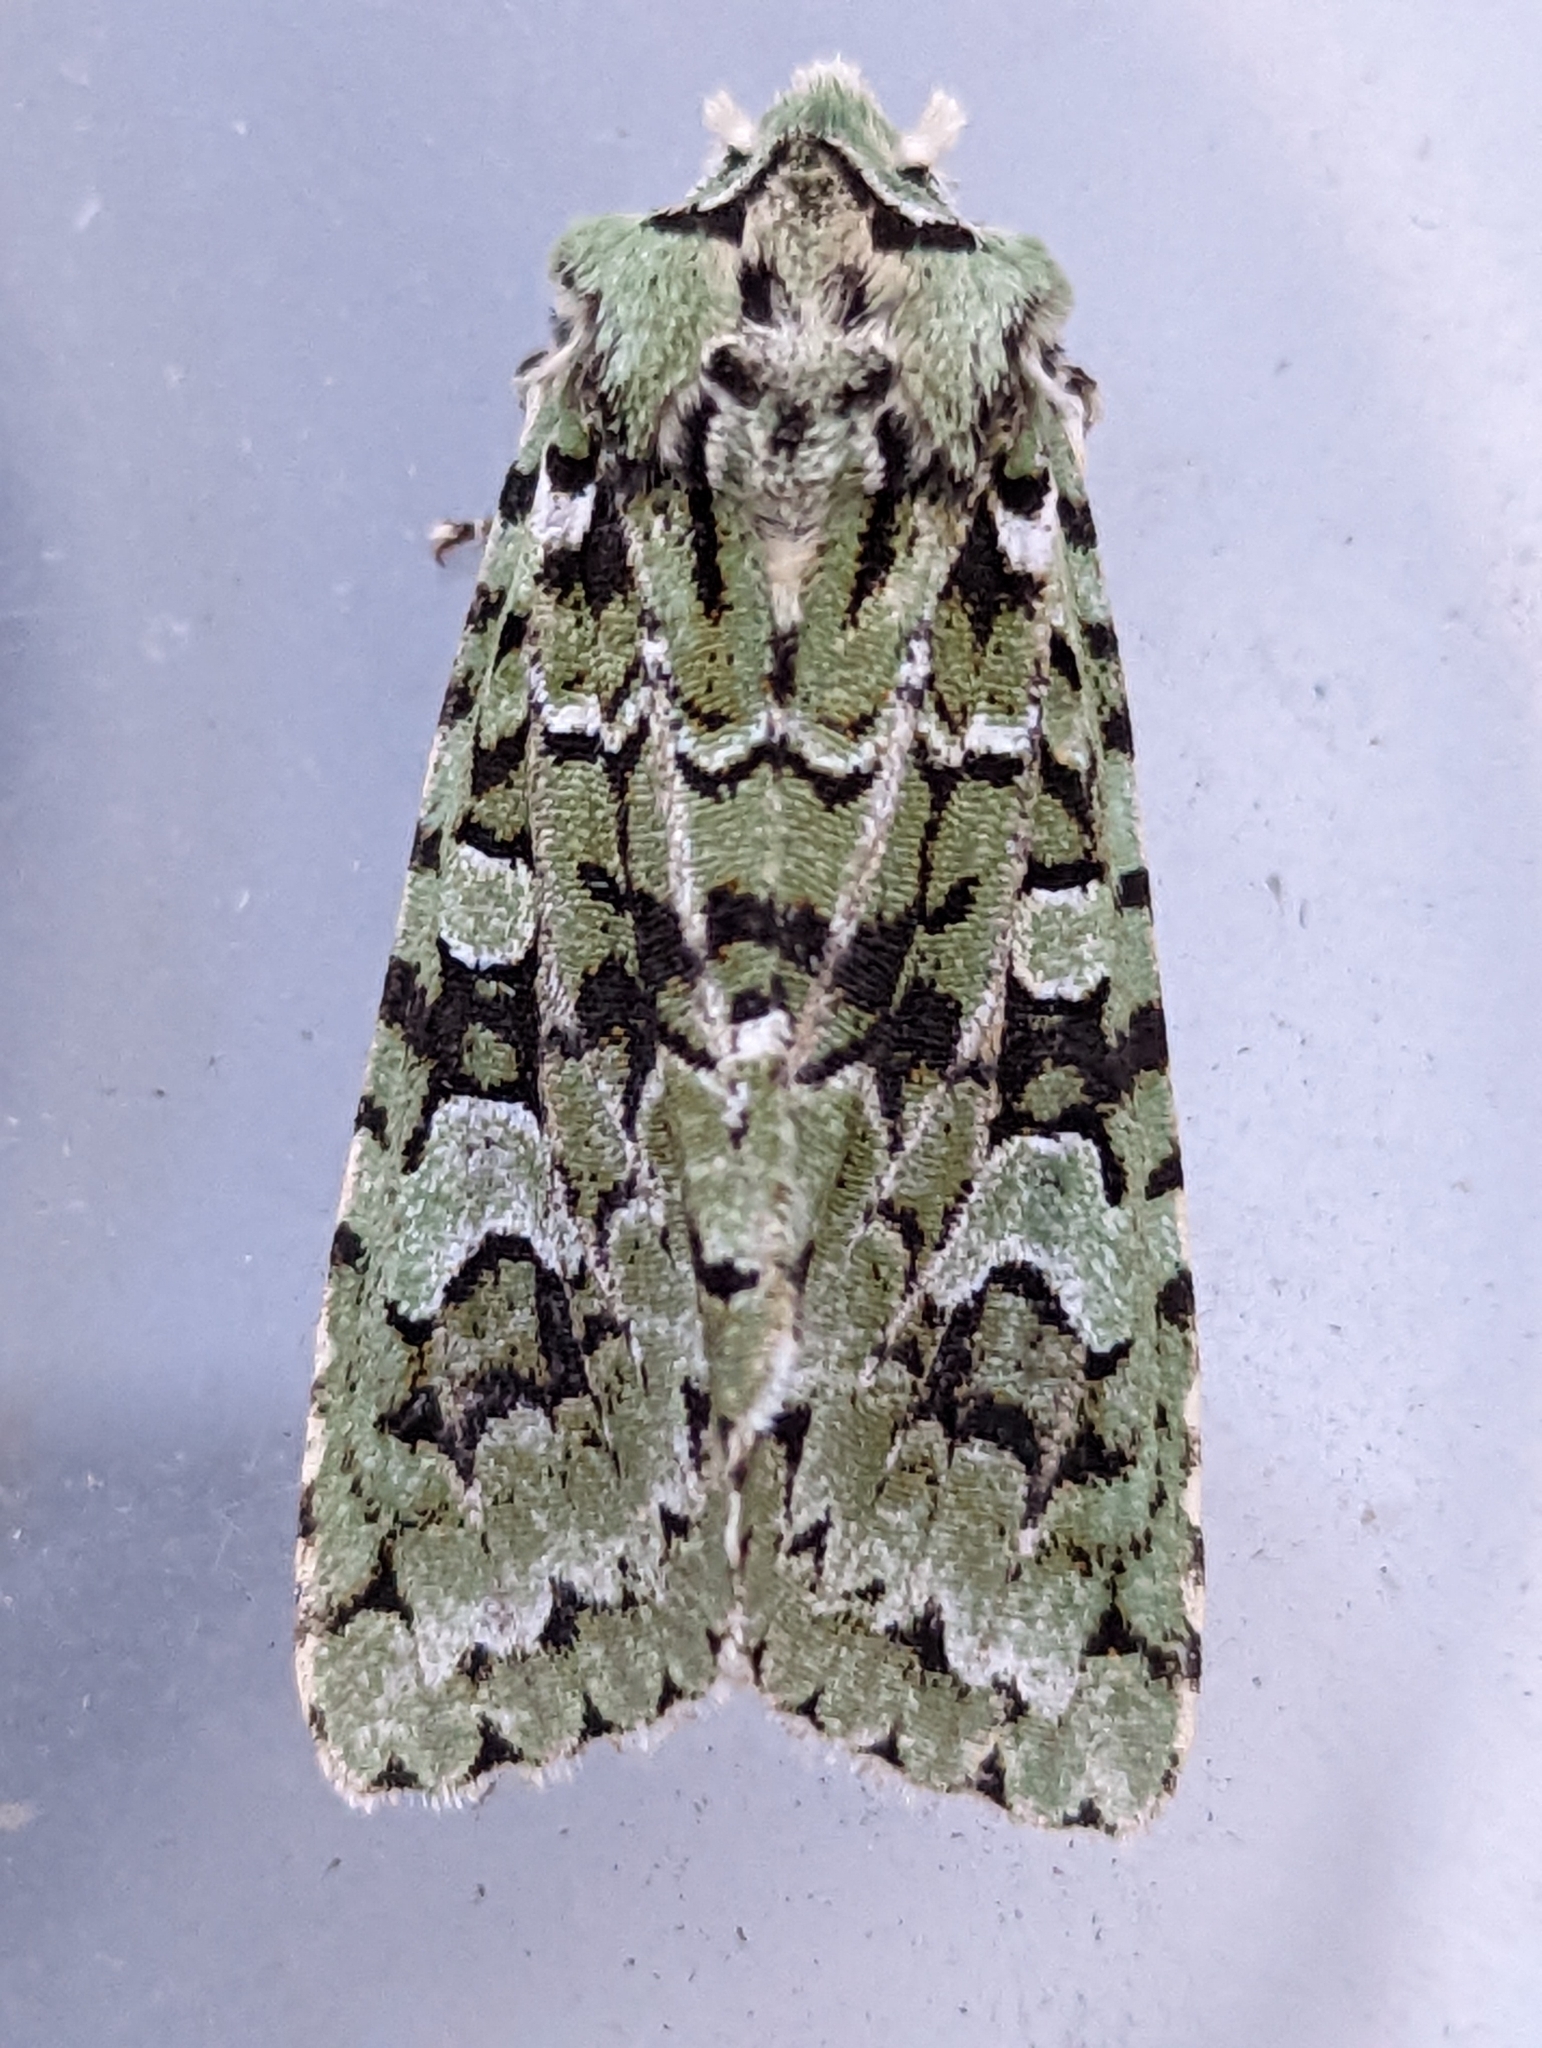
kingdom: Animalia
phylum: Arthropoda
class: Insecta
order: Lepidoptera
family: Noctuidae
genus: Griposia
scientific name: Griposia aprilina
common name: Merveille du jour
